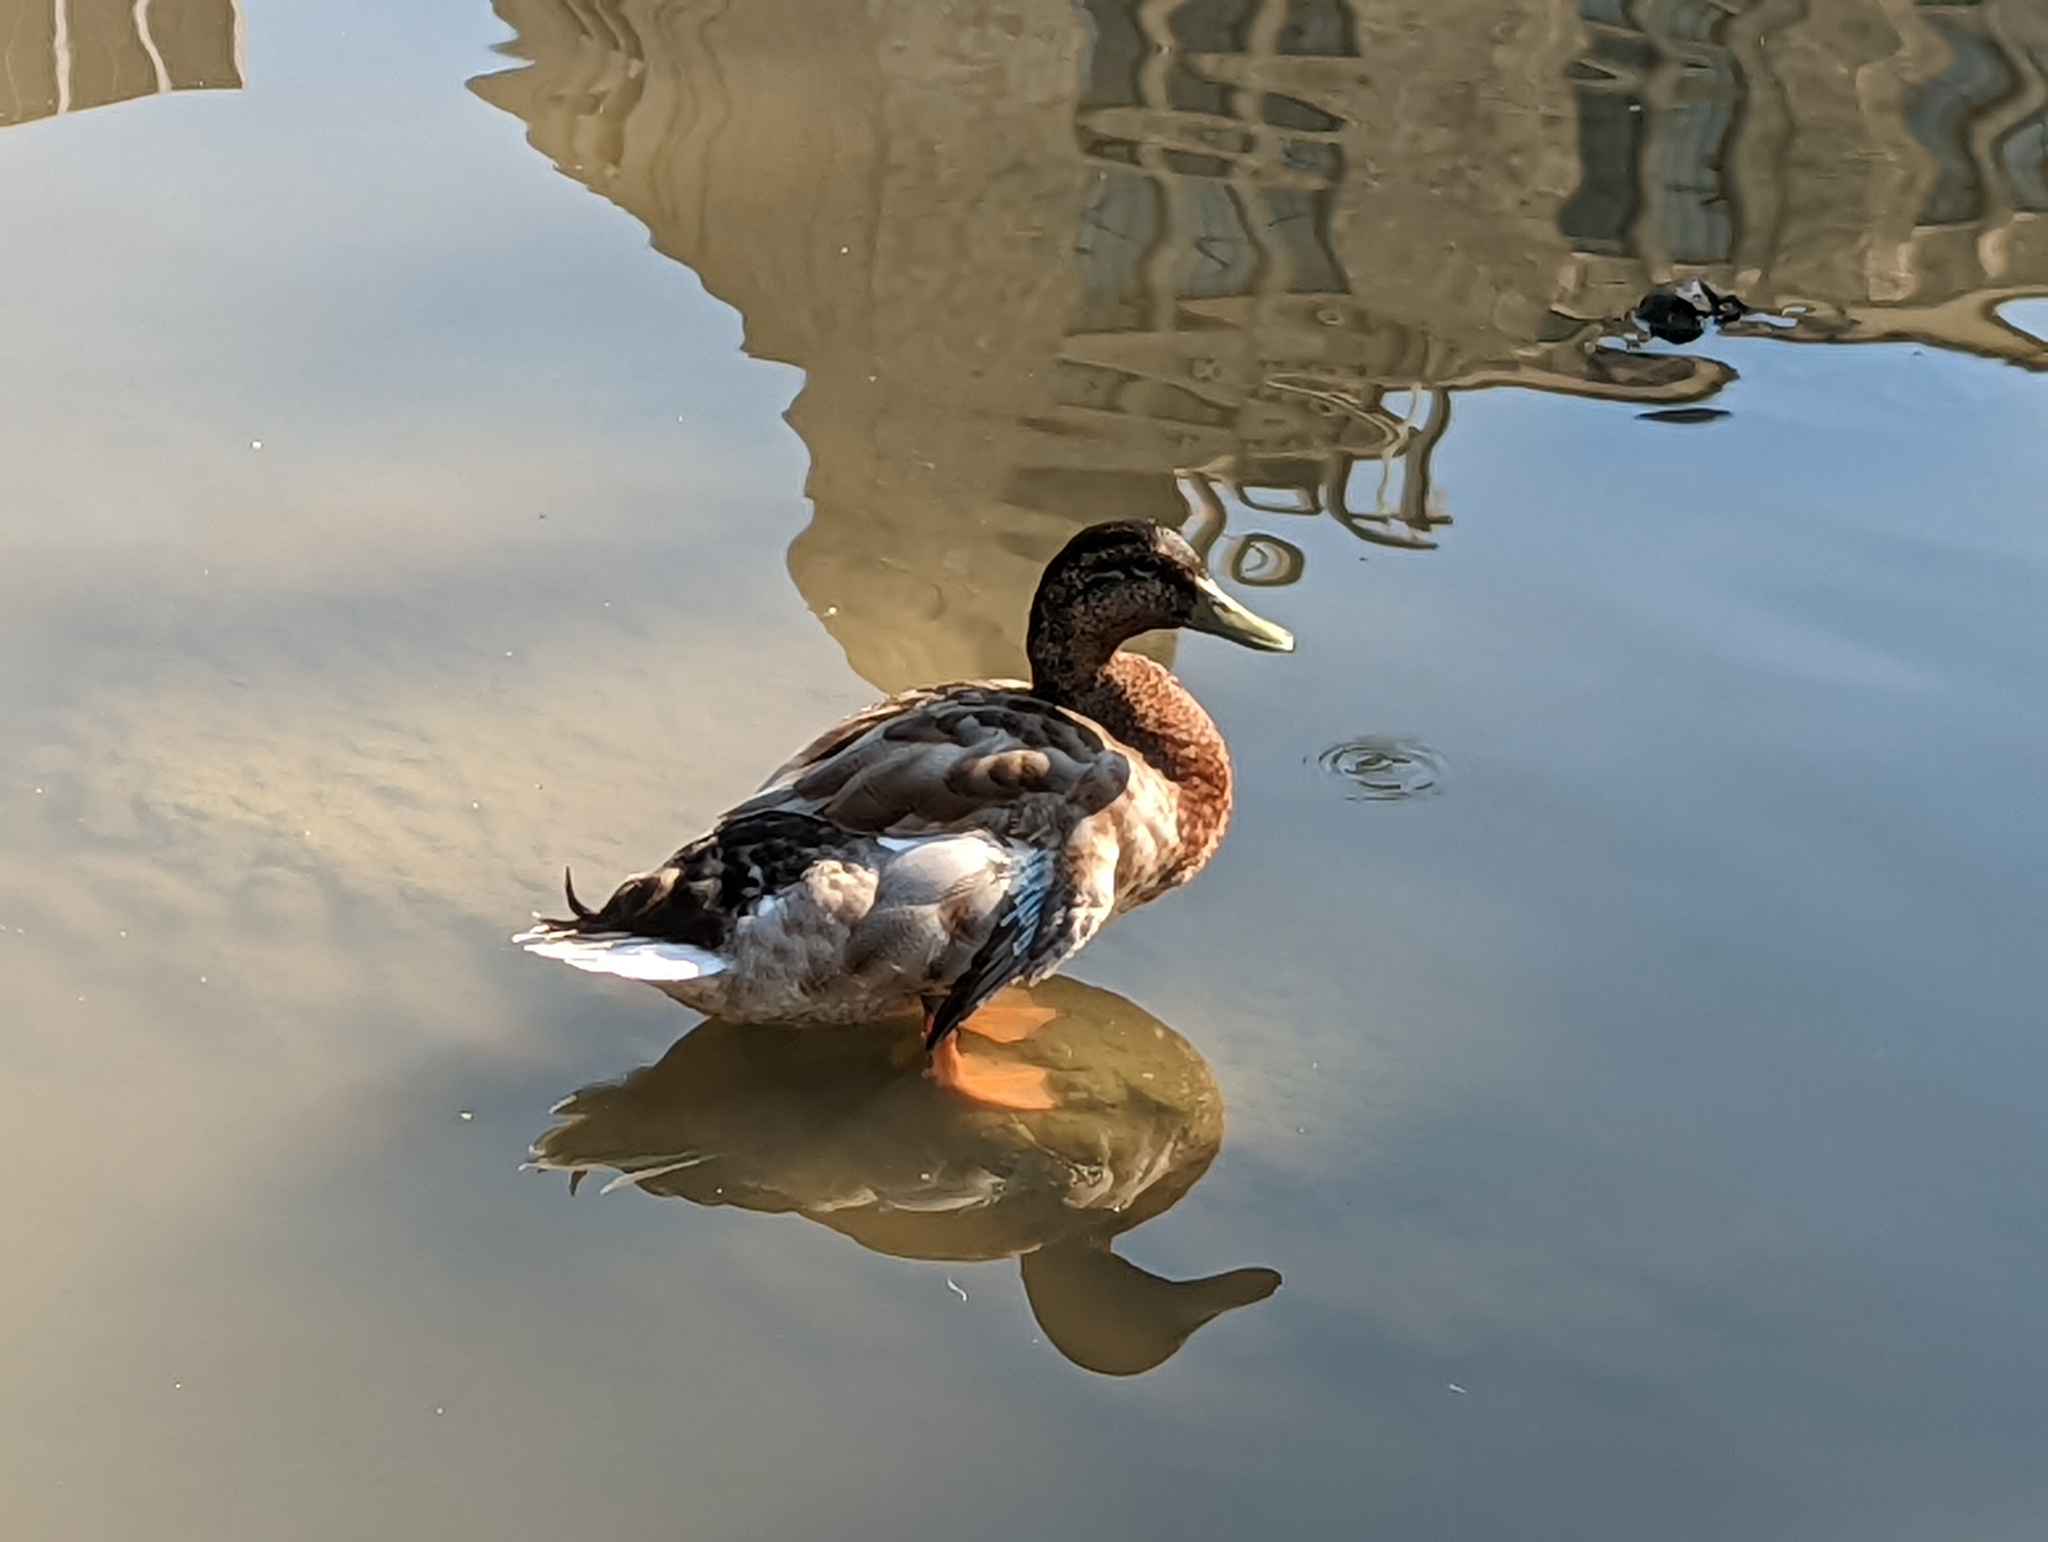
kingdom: Animalia
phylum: Chordata
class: Aves
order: Anseriformes
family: Anatidae
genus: Anas
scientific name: Anas platyrhynchos
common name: Mallard
